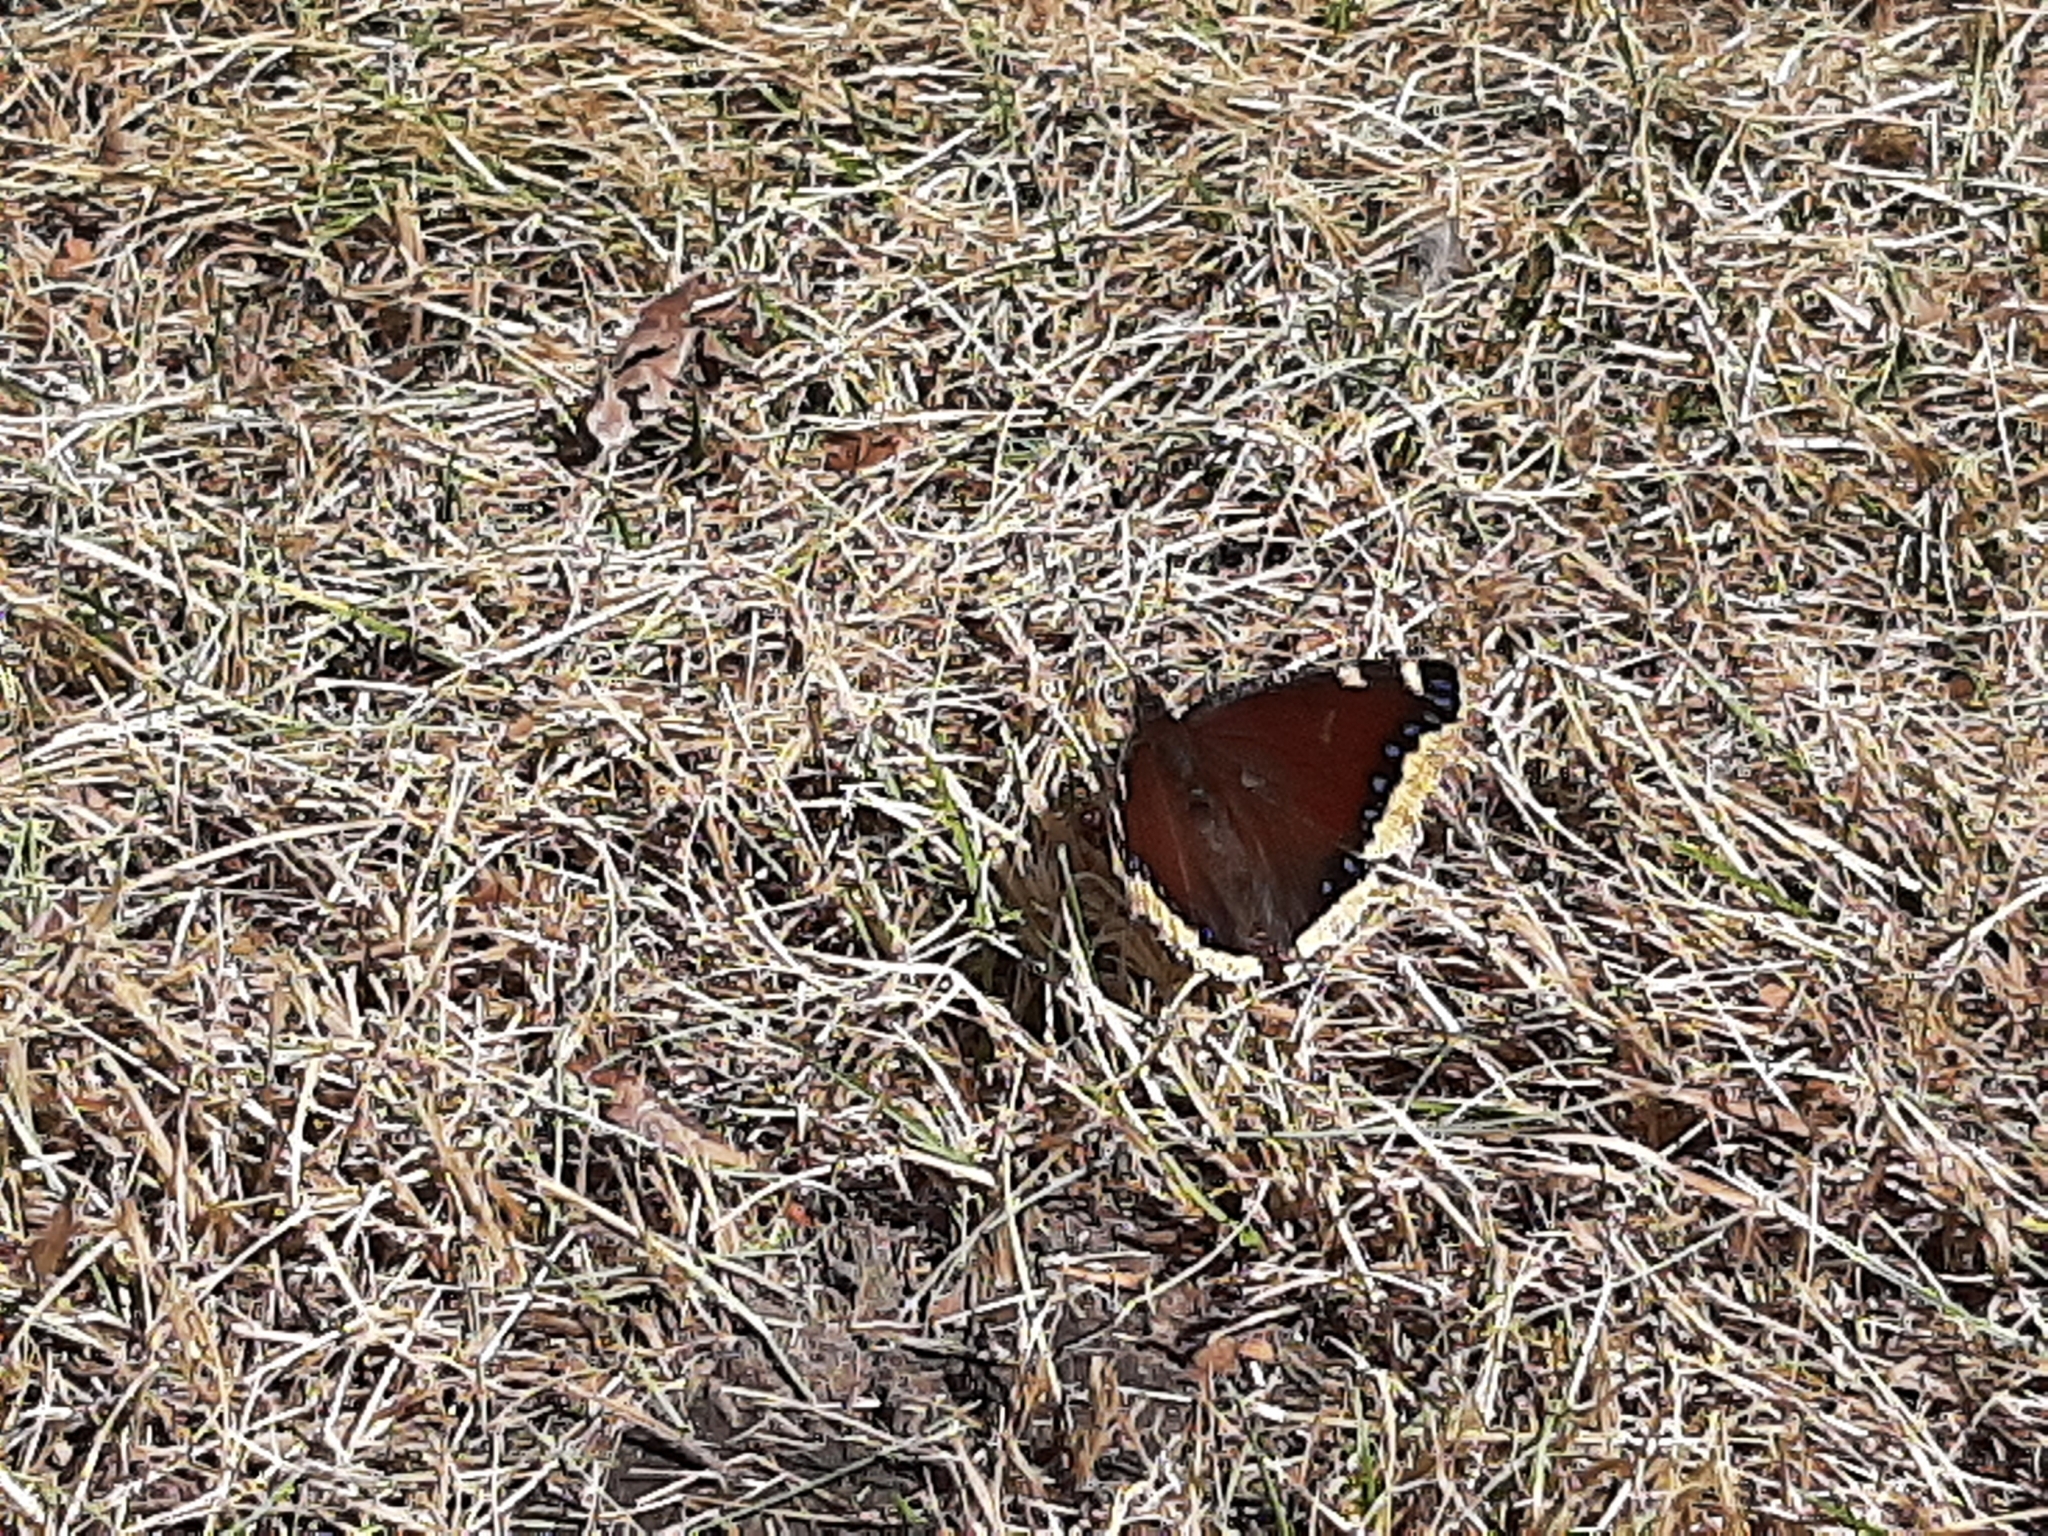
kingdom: Animalia
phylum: Arthropoda
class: Insecta
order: Lepidoptera
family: Nymphalidae
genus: Nymphalis
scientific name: Nymphalis antiopa
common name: Camberwell beauty
